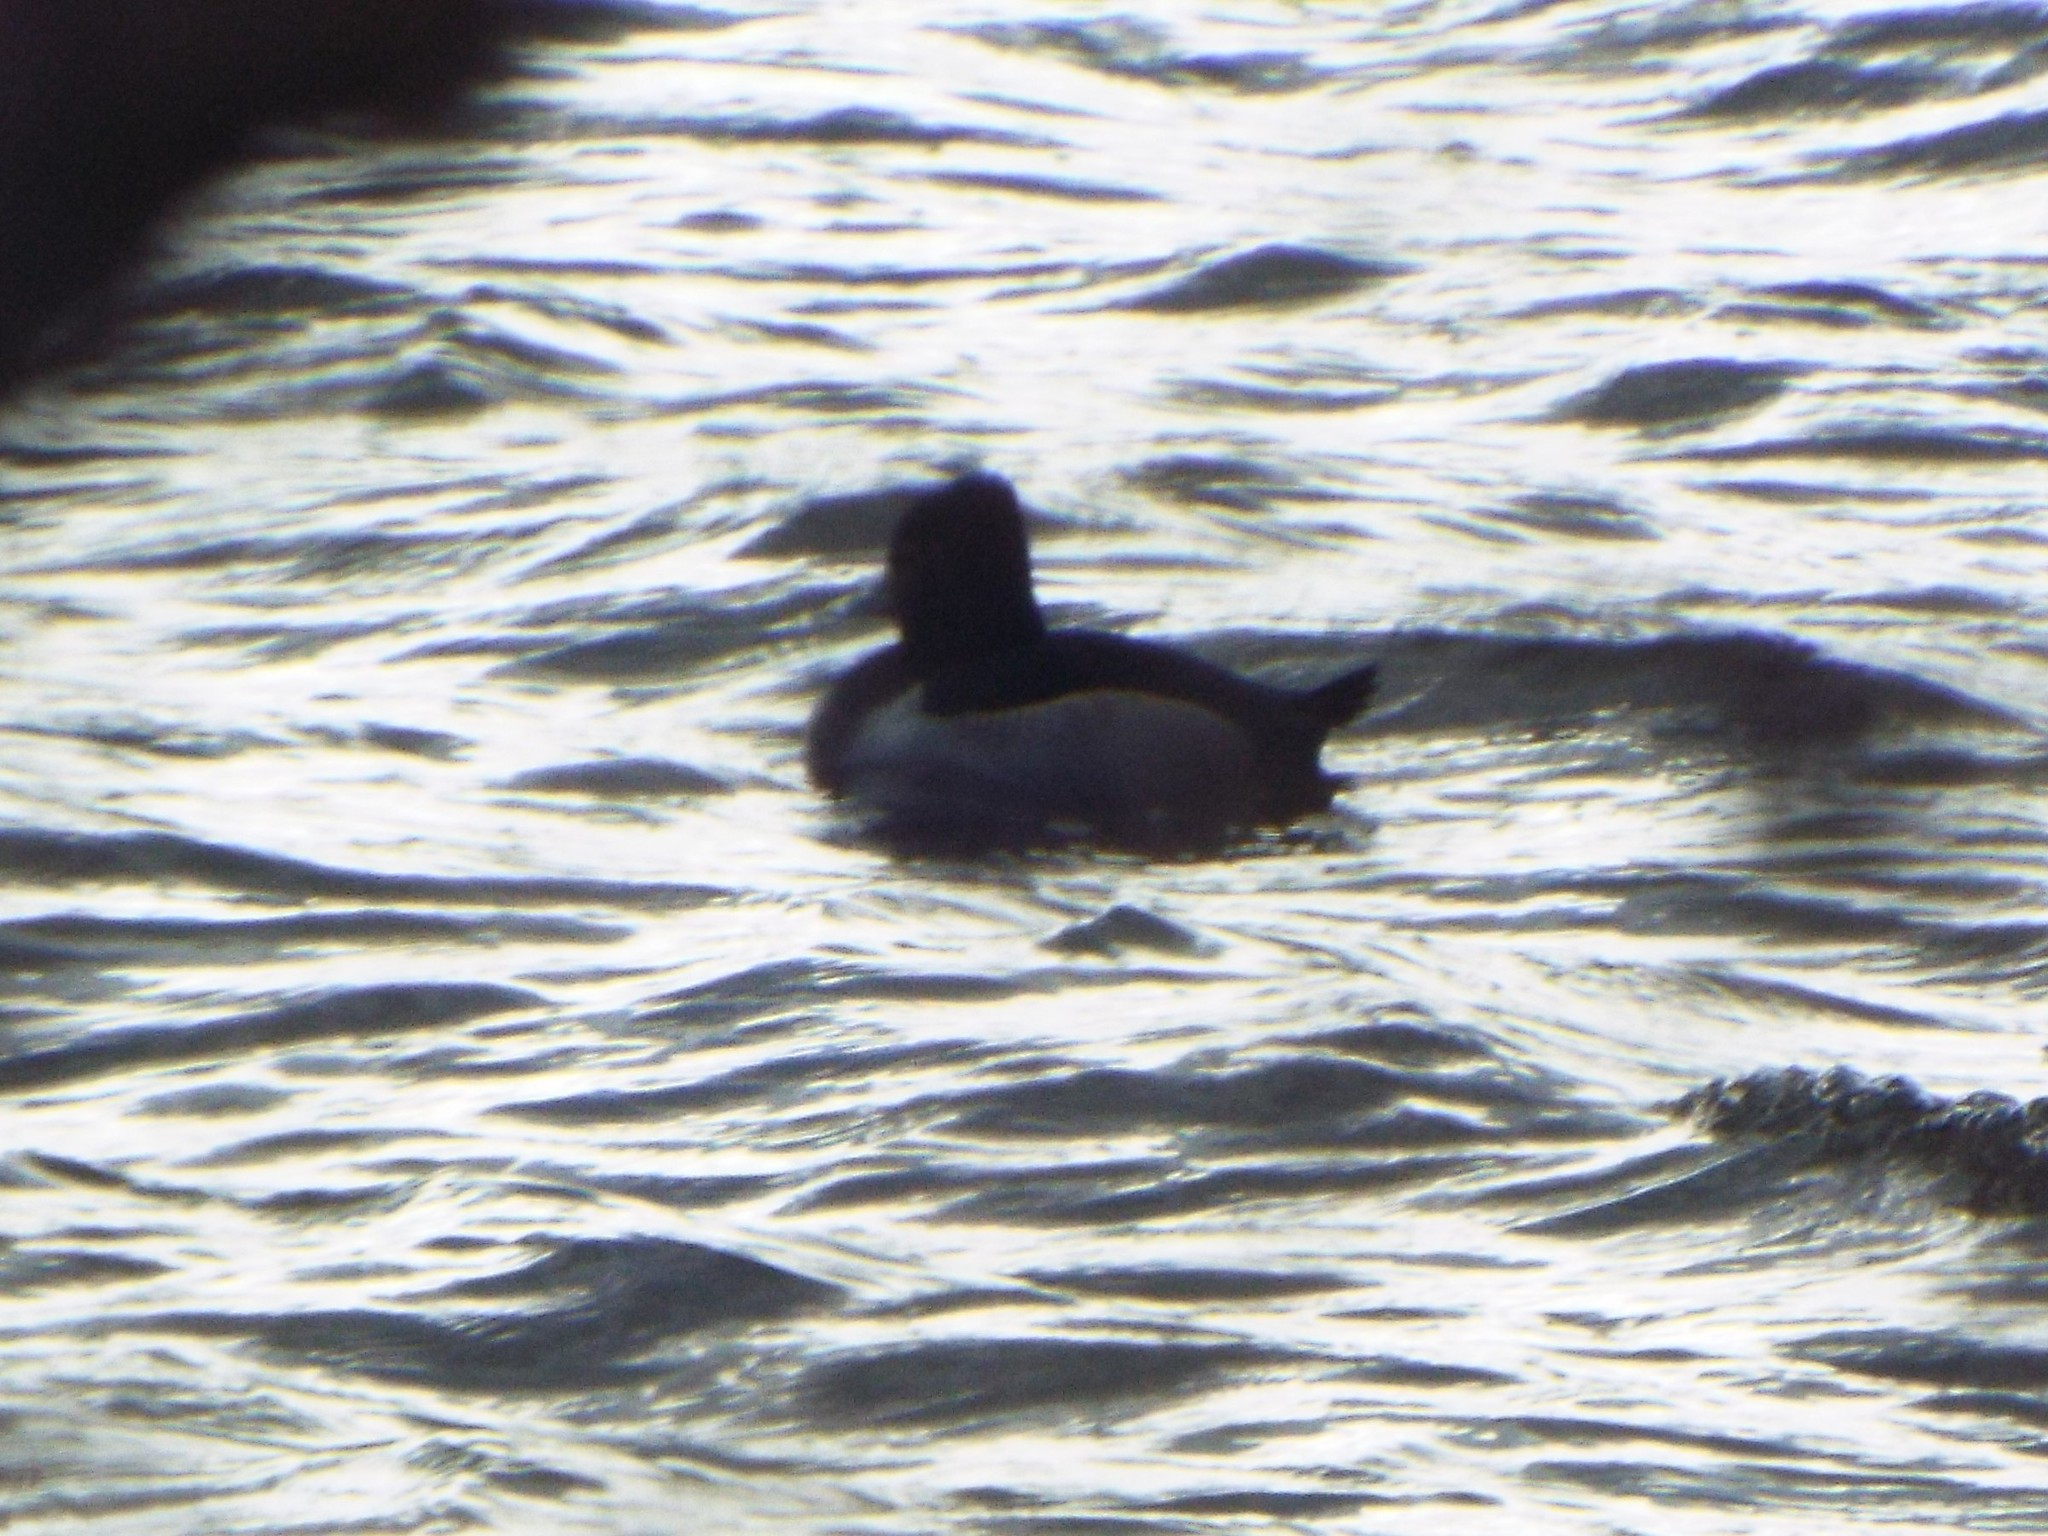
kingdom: Animalia
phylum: Chordata
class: Aves
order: Anseriformes
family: Anatidae
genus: Aythya
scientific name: Aythya collaris
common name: Ring-necked duck
